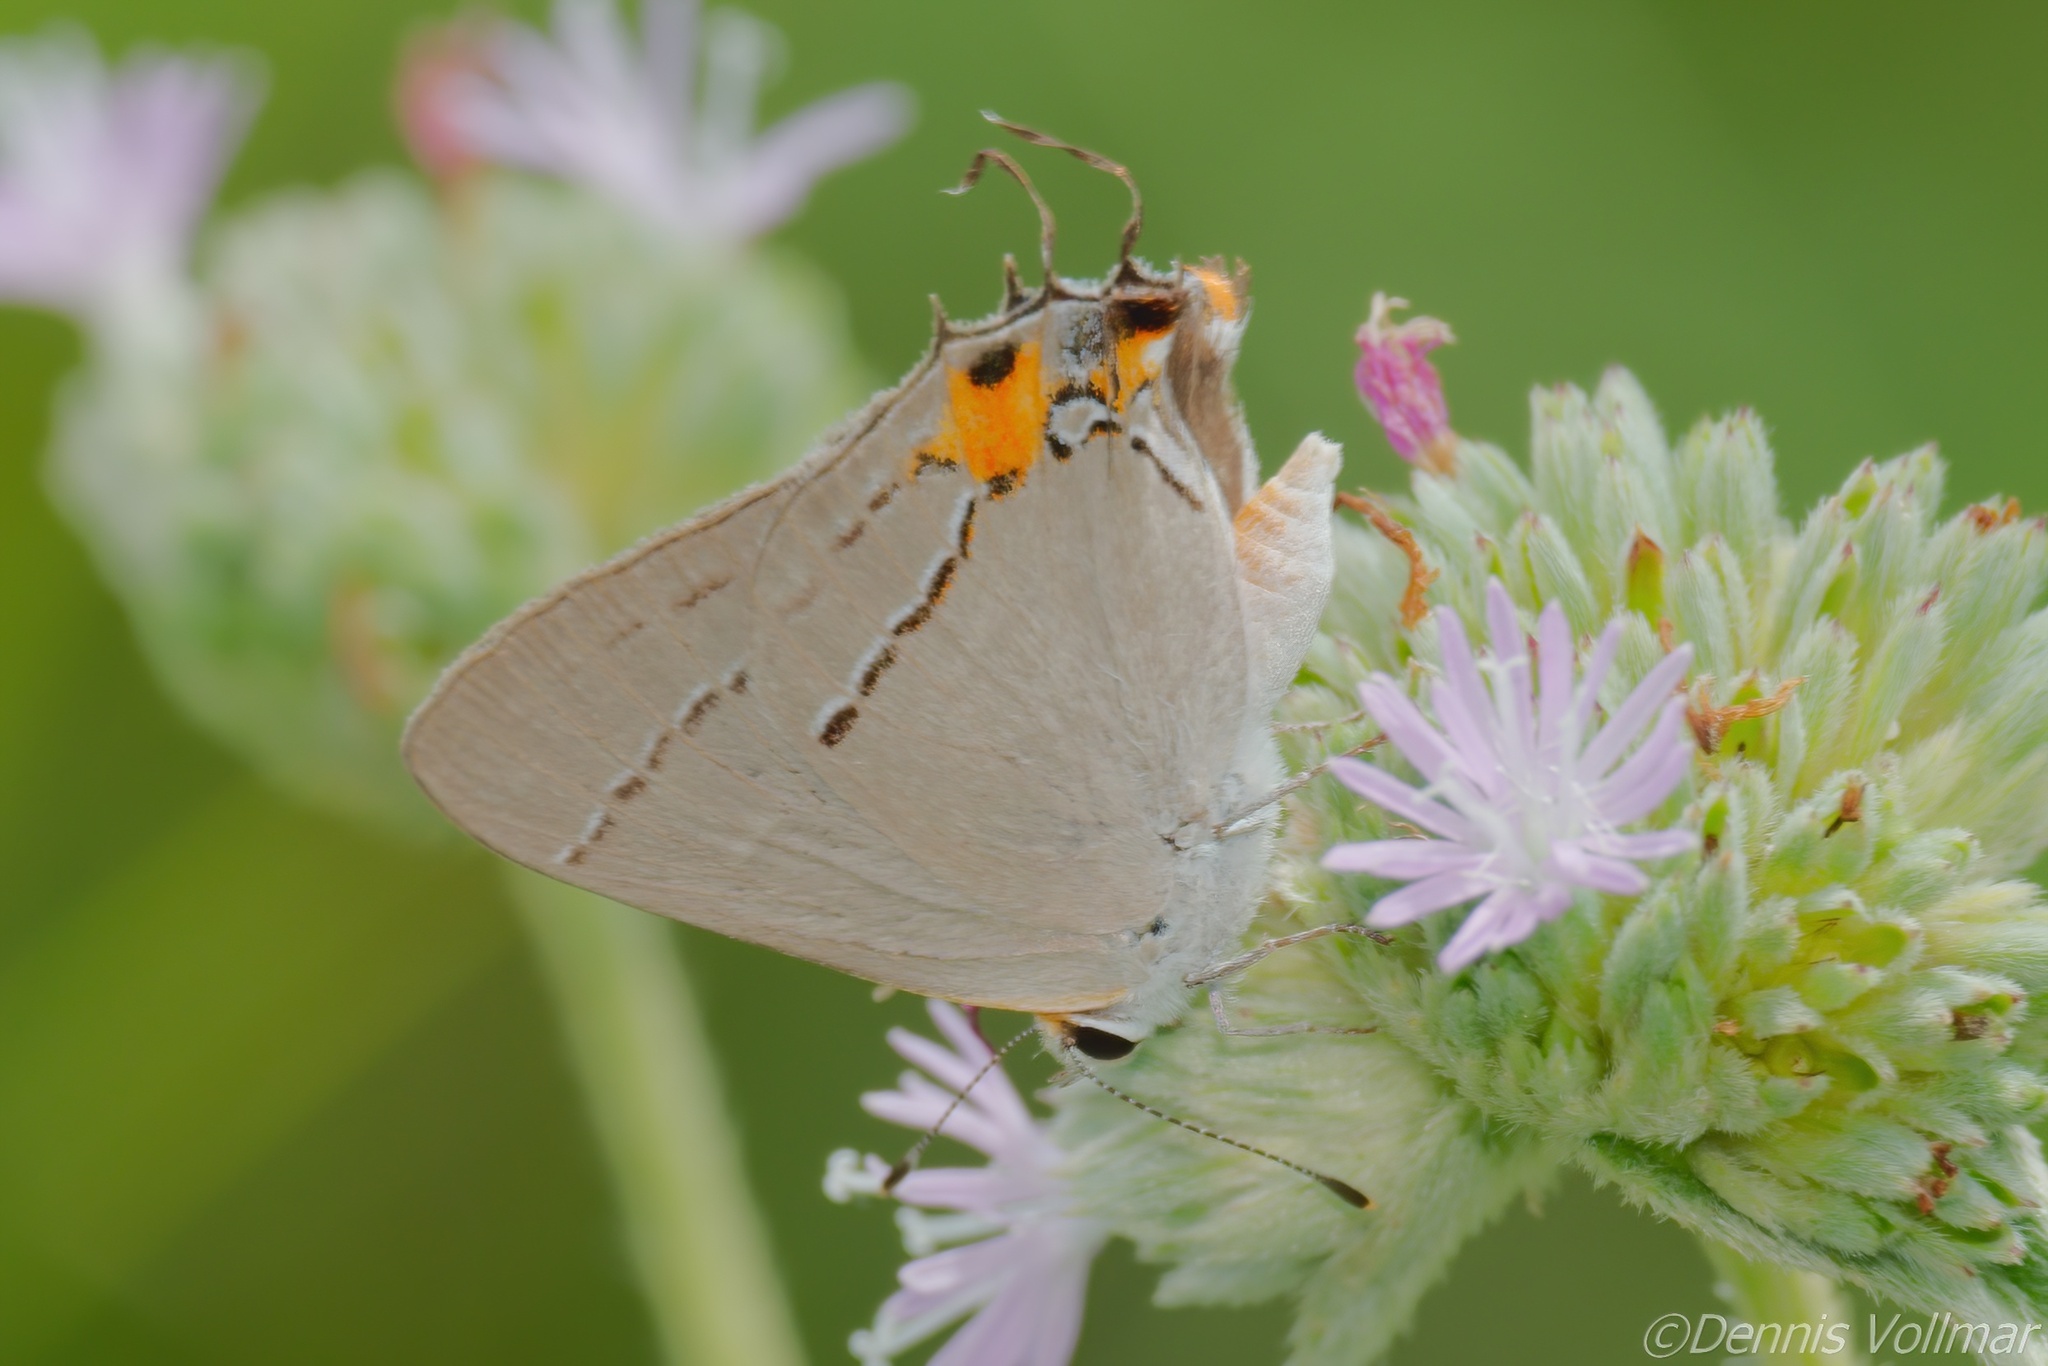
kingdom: Animalia
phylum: Arthropoda
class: Insecta
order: Lepidoptera
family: Lycaenidae
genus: Strymon
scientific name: Strymon melinus
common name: Gray hairstreak
